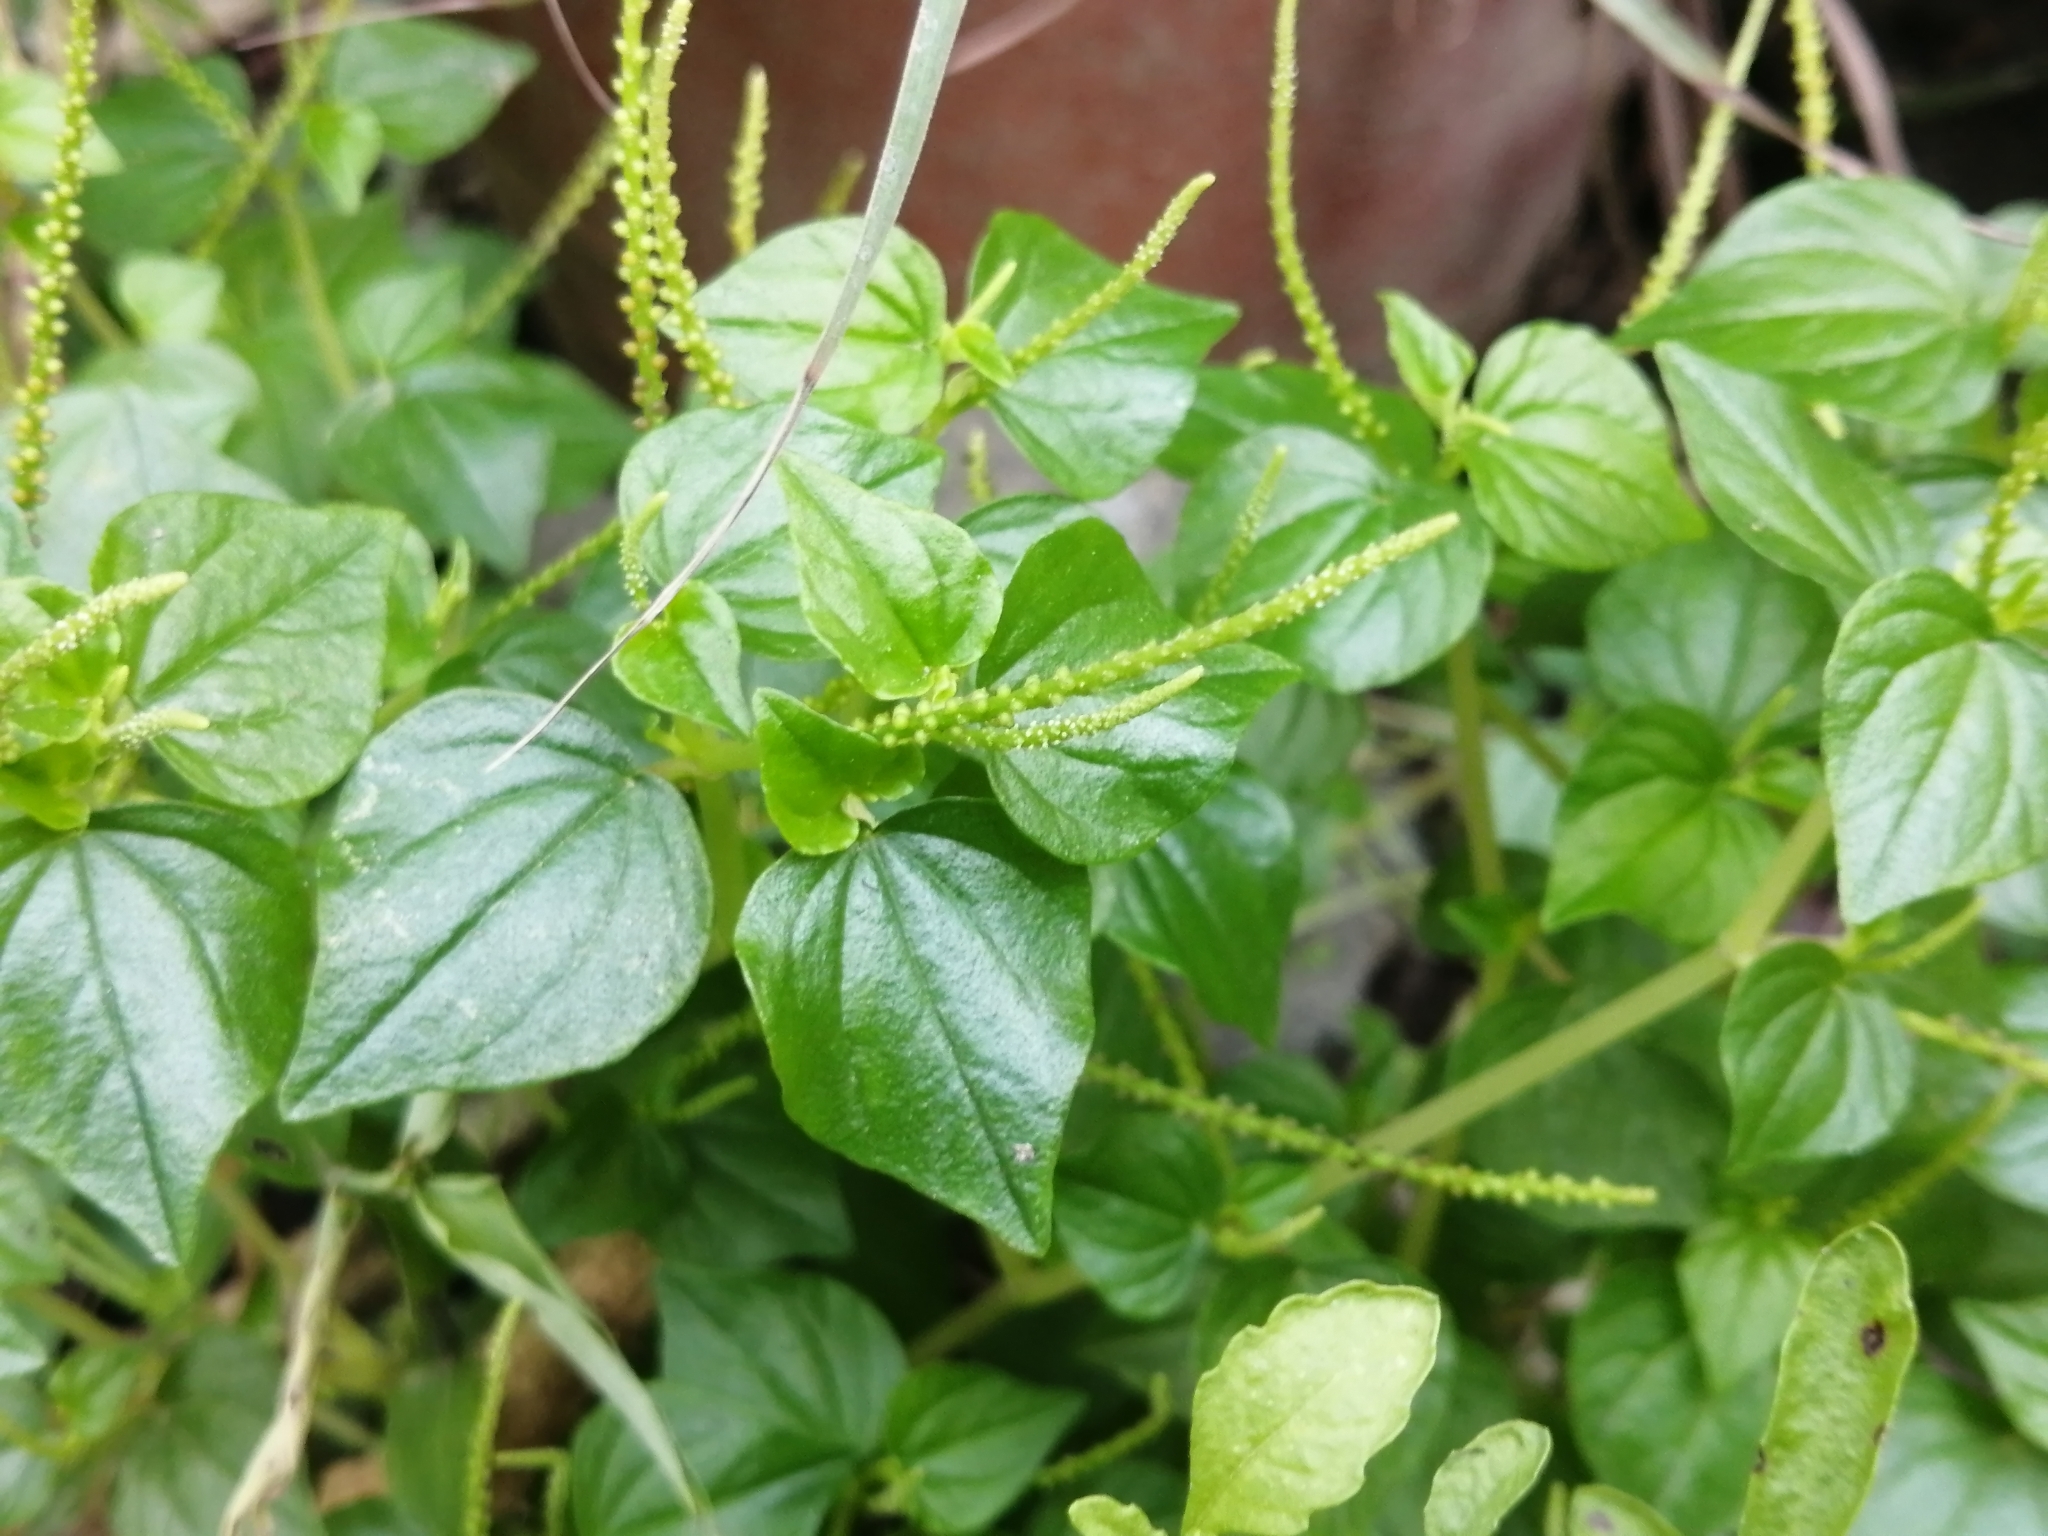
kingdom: Plantae
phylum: Tracheophyta
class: Magnoliopsida
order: Piperales
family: Piperaceae
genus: Peperomia
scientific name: Peperomia pellucida
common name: Man to man
